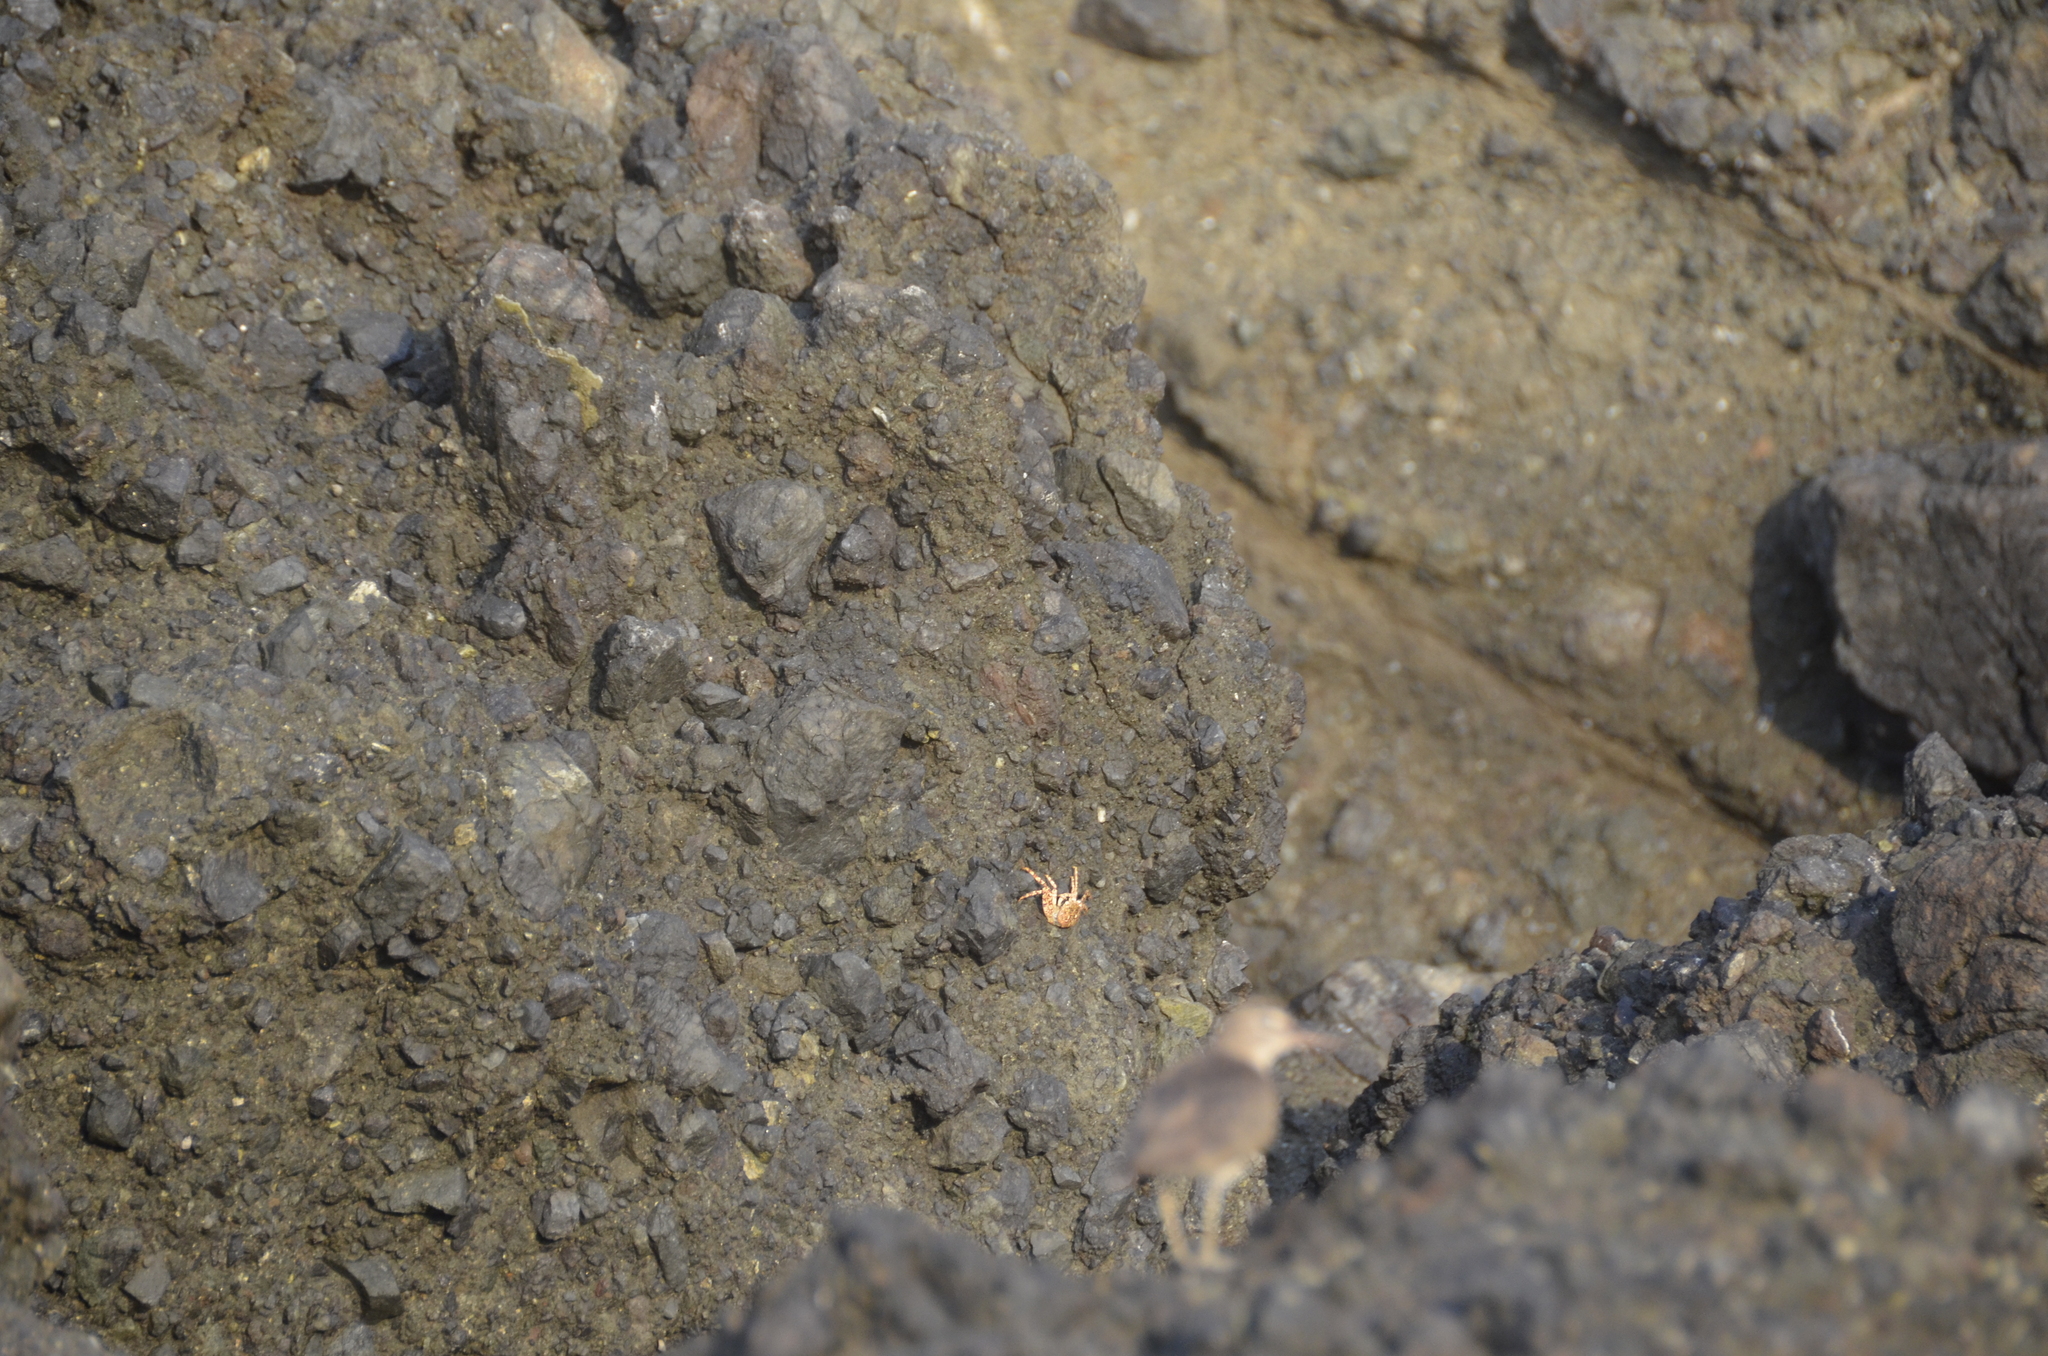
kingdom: Animalia
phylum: Arthropoda
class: Malacostraca
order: Decapoda
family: Grapsidae
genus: Grapsus
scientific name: Grapsus grapsus
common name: Sally lightfoot
